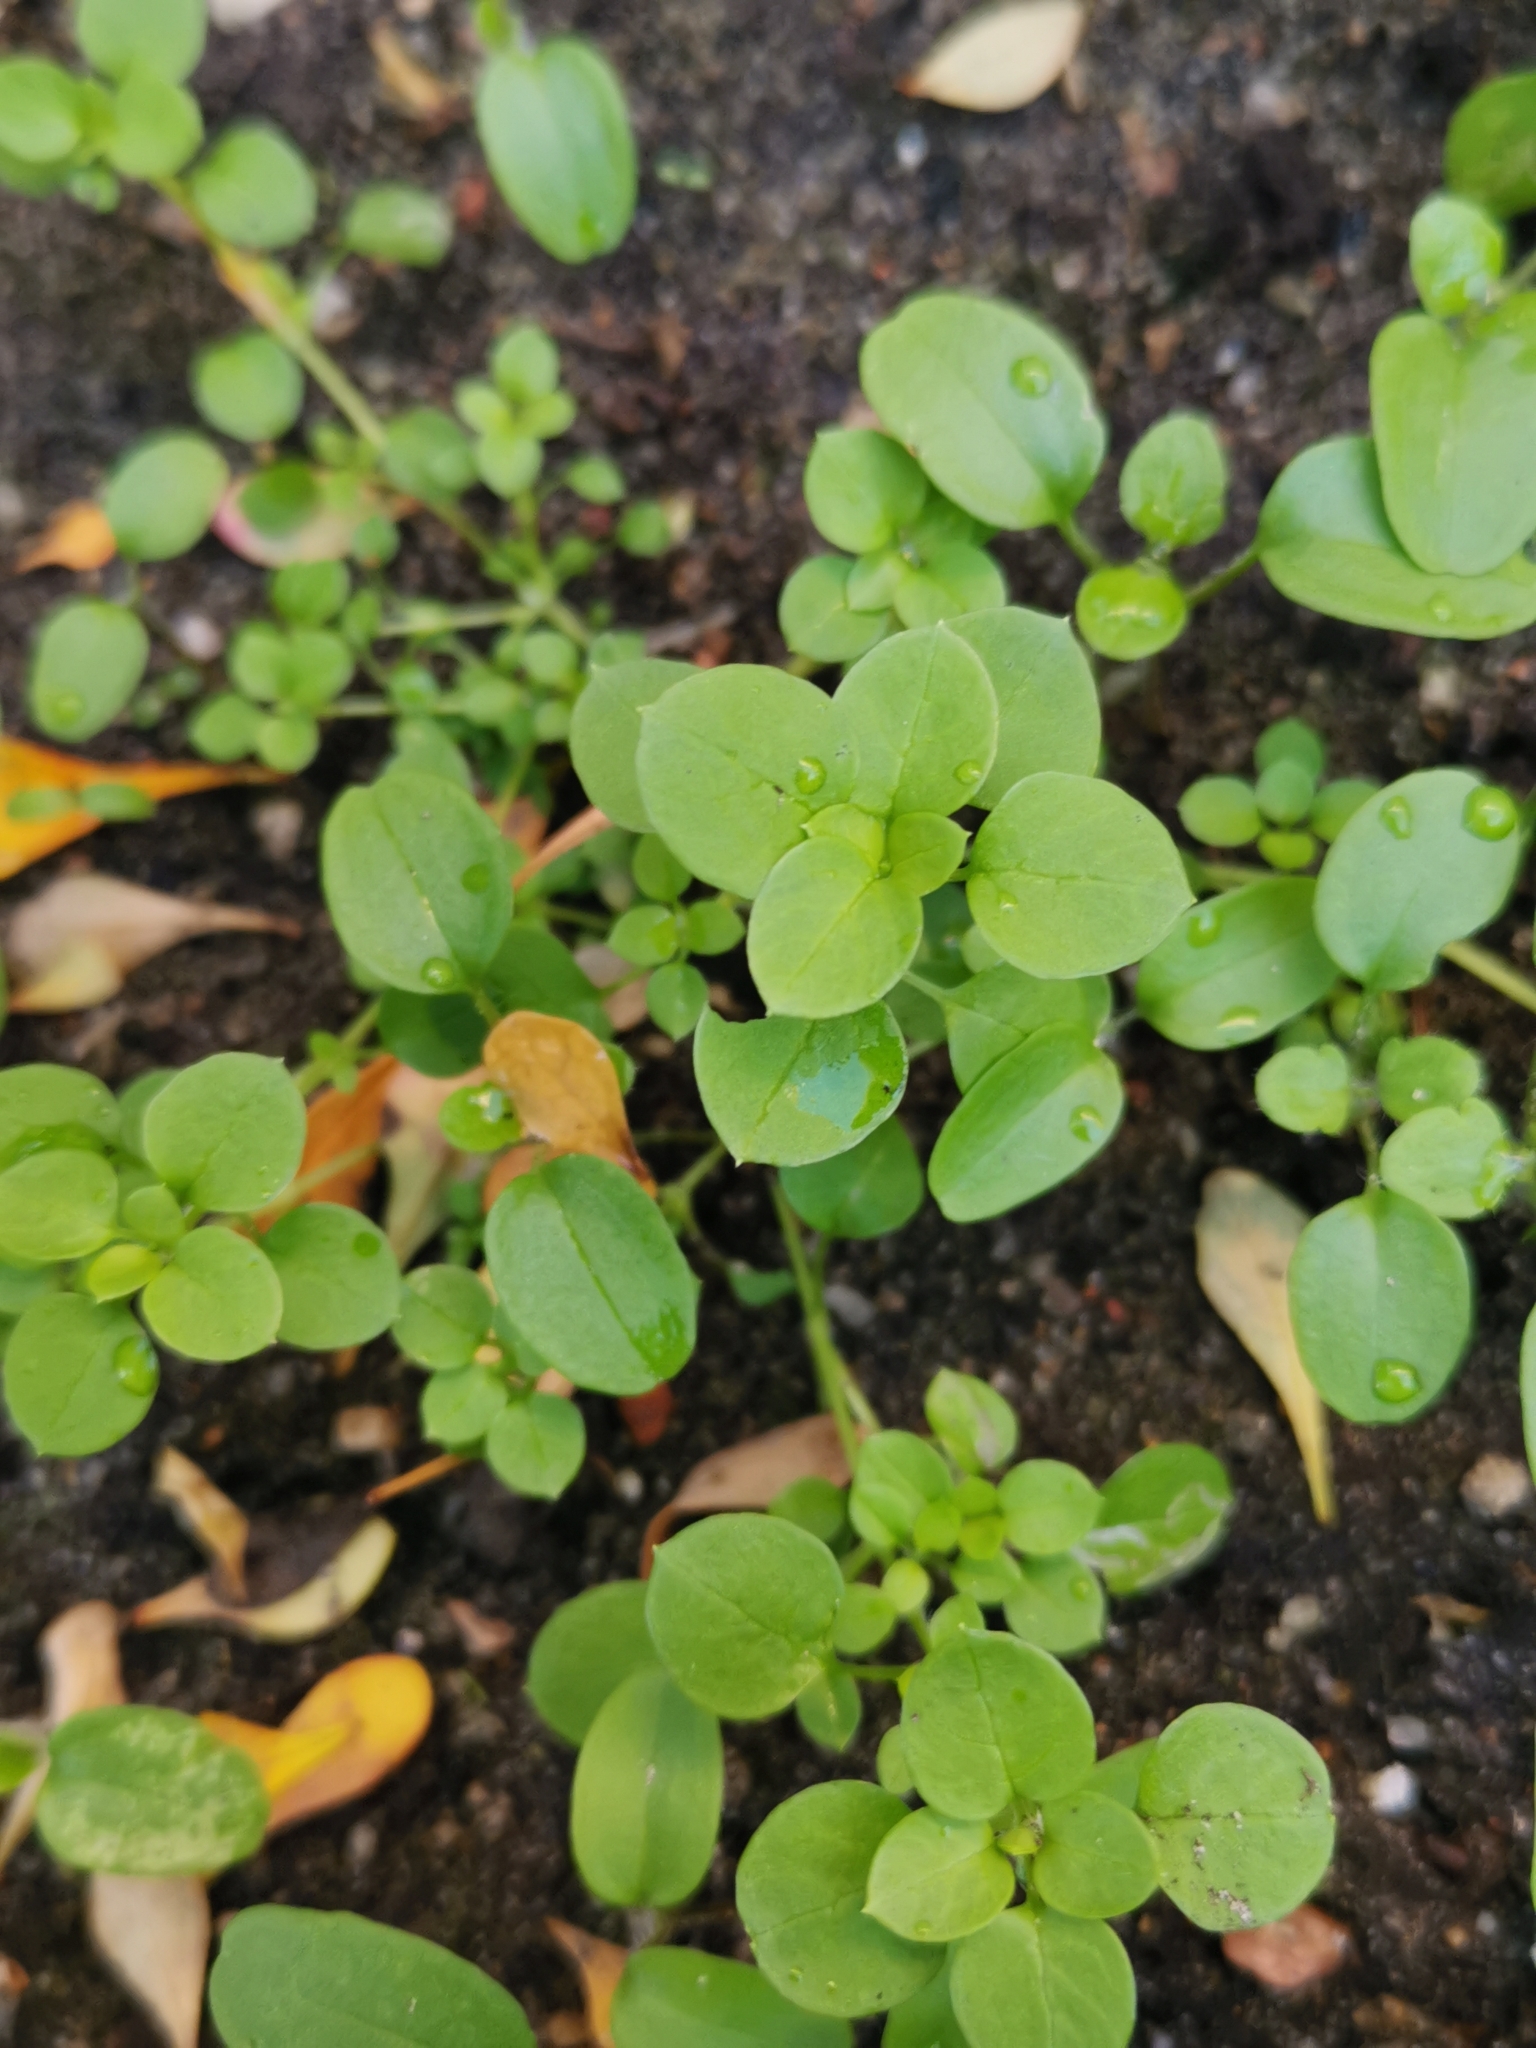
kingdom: Plantae
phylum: Tracheophyta
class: Magnoliopsida
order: Caryophyllales
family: Caryophyllaceae
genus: Stellaria
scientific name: Stellaria media
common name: Common chickweed
